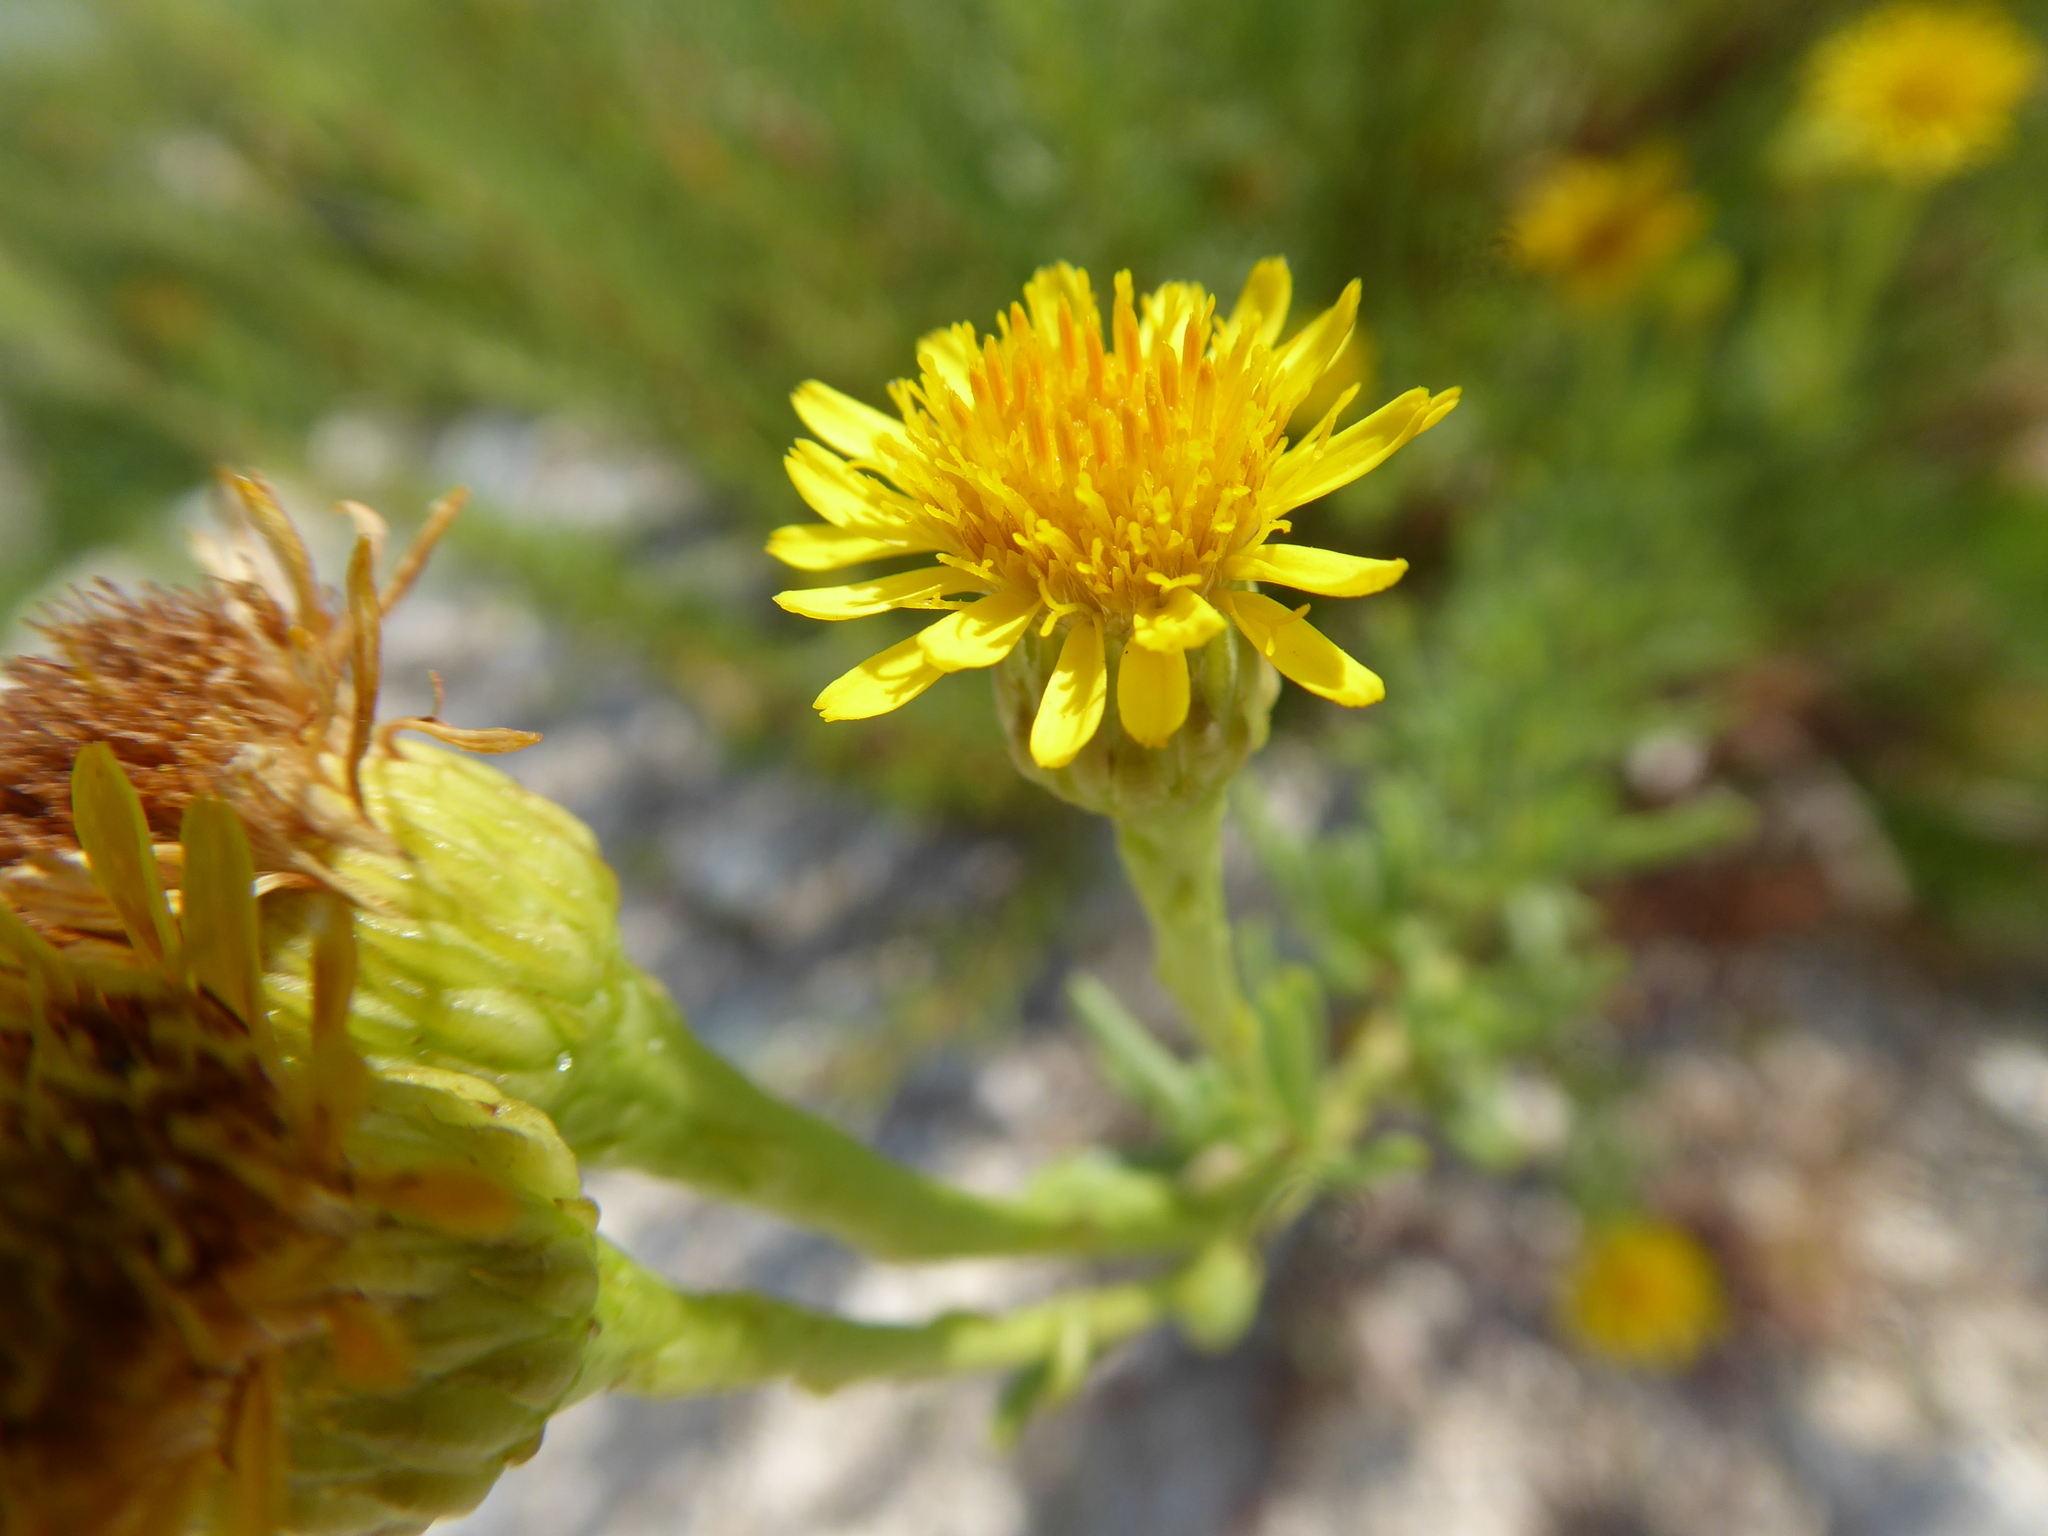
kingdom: Plantae
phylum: Tracheophyta
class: Magnoliopsida
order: Asterales
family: Asteraceae
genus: Limbarda
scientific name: Limbarda crithmoides
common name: Golden samphire
